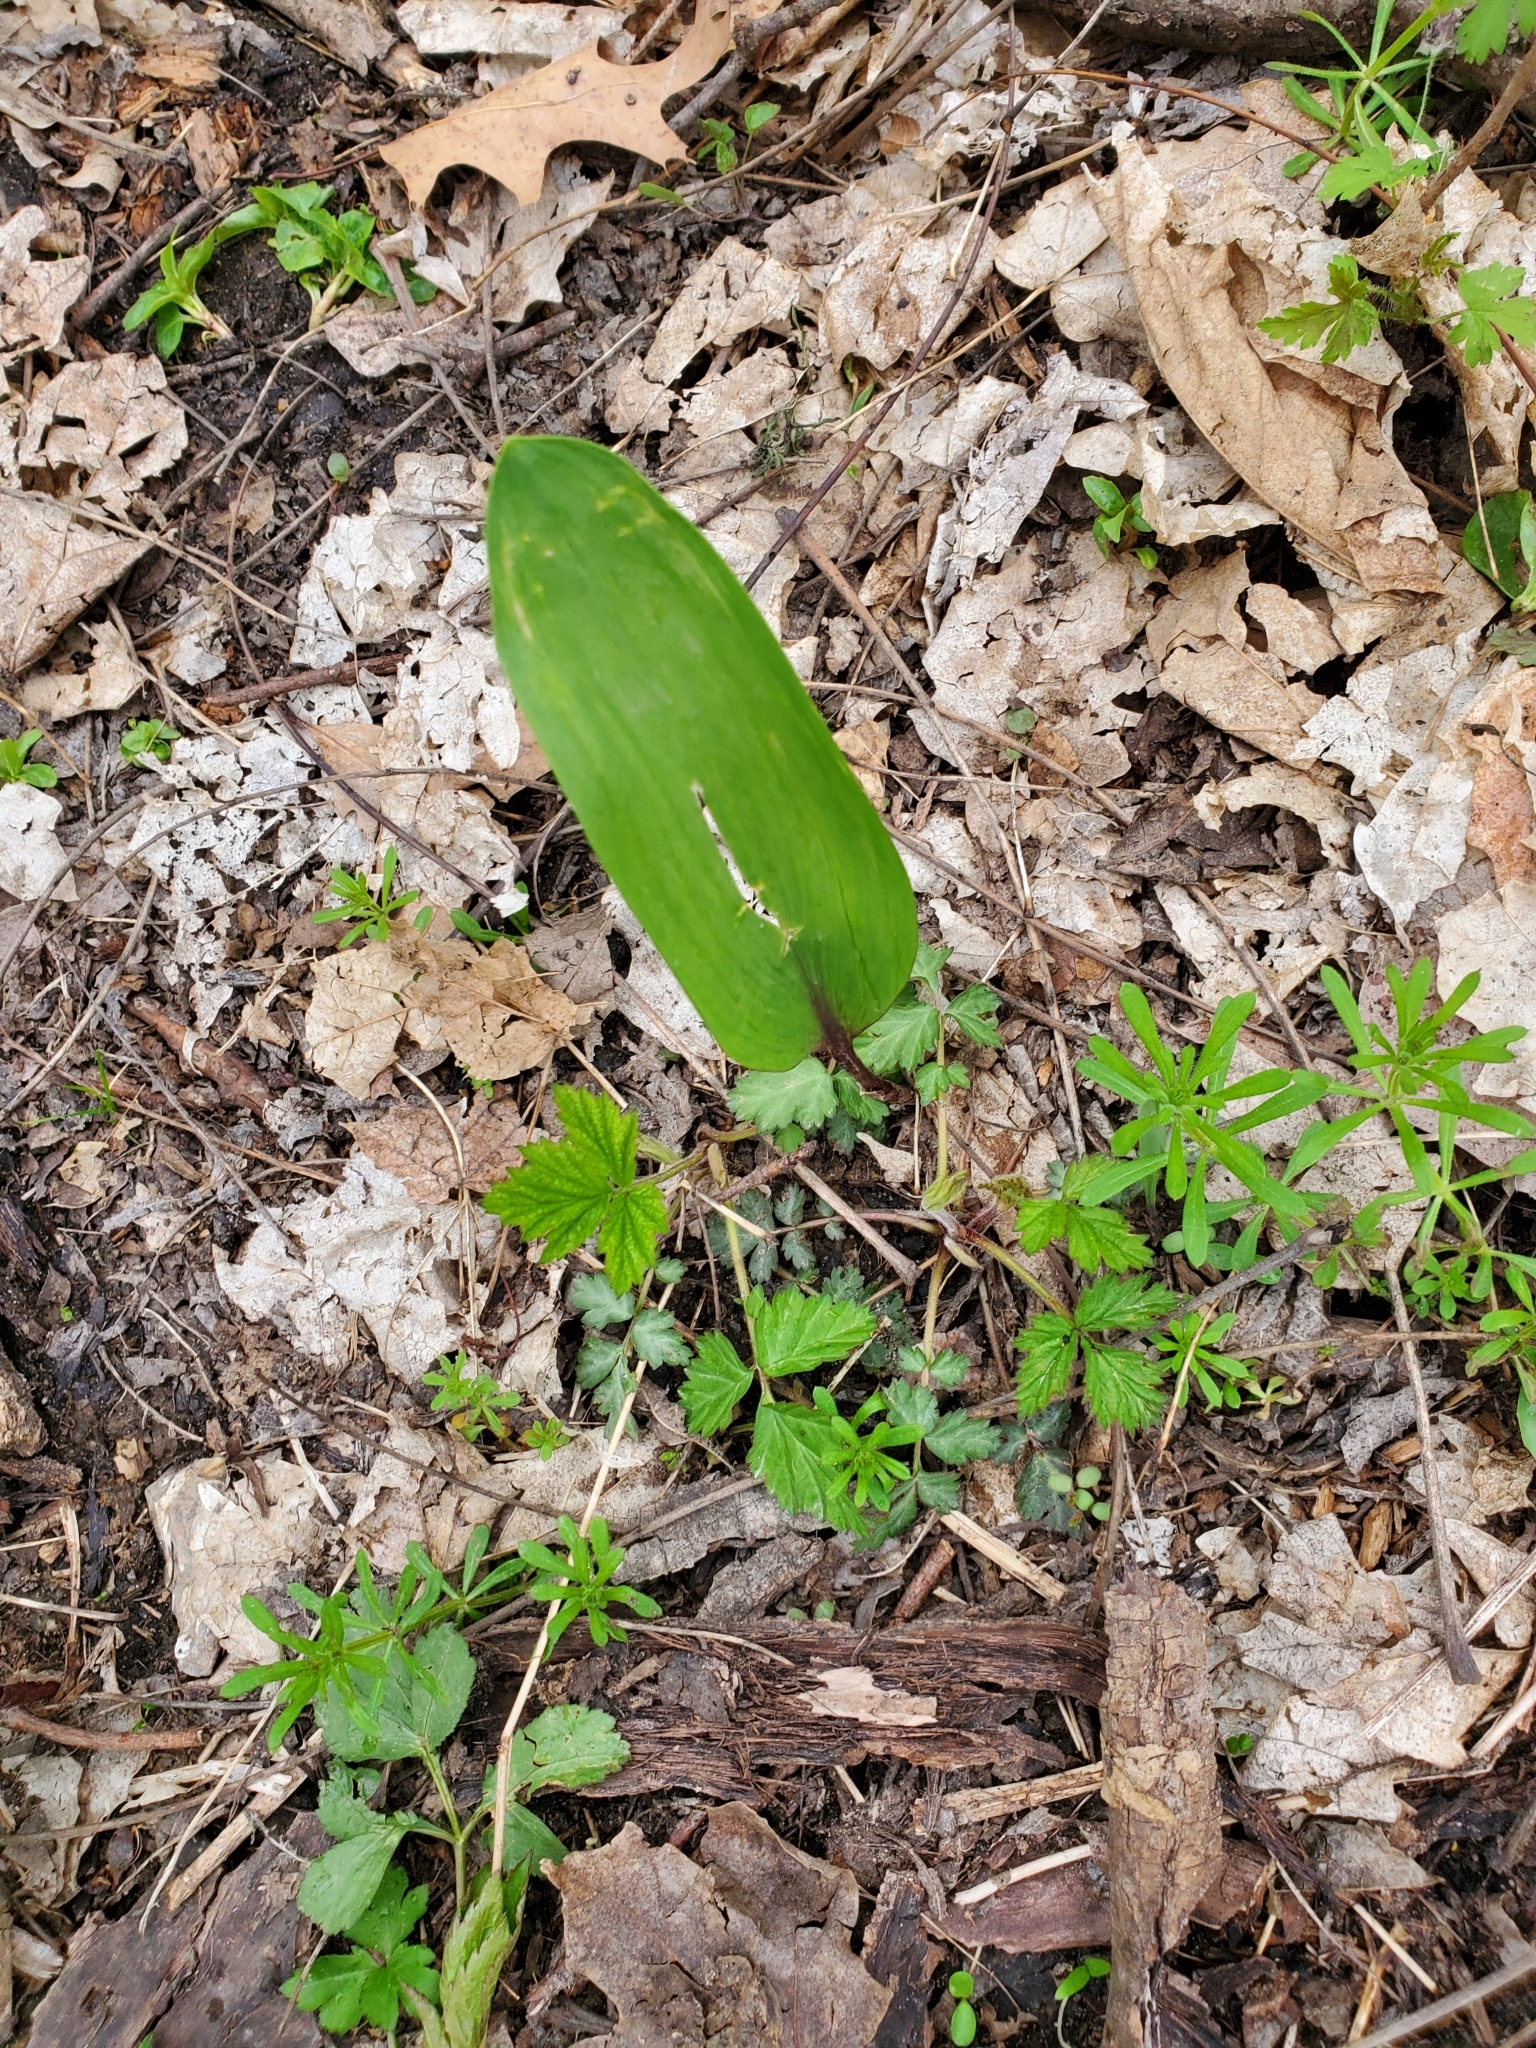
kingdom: Plantae
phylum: Tracheophyta
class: Liliopsida
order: Asparagales
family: Amaryllidaceae
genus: Allium
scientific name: Allium tricoccum
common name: Ramp
